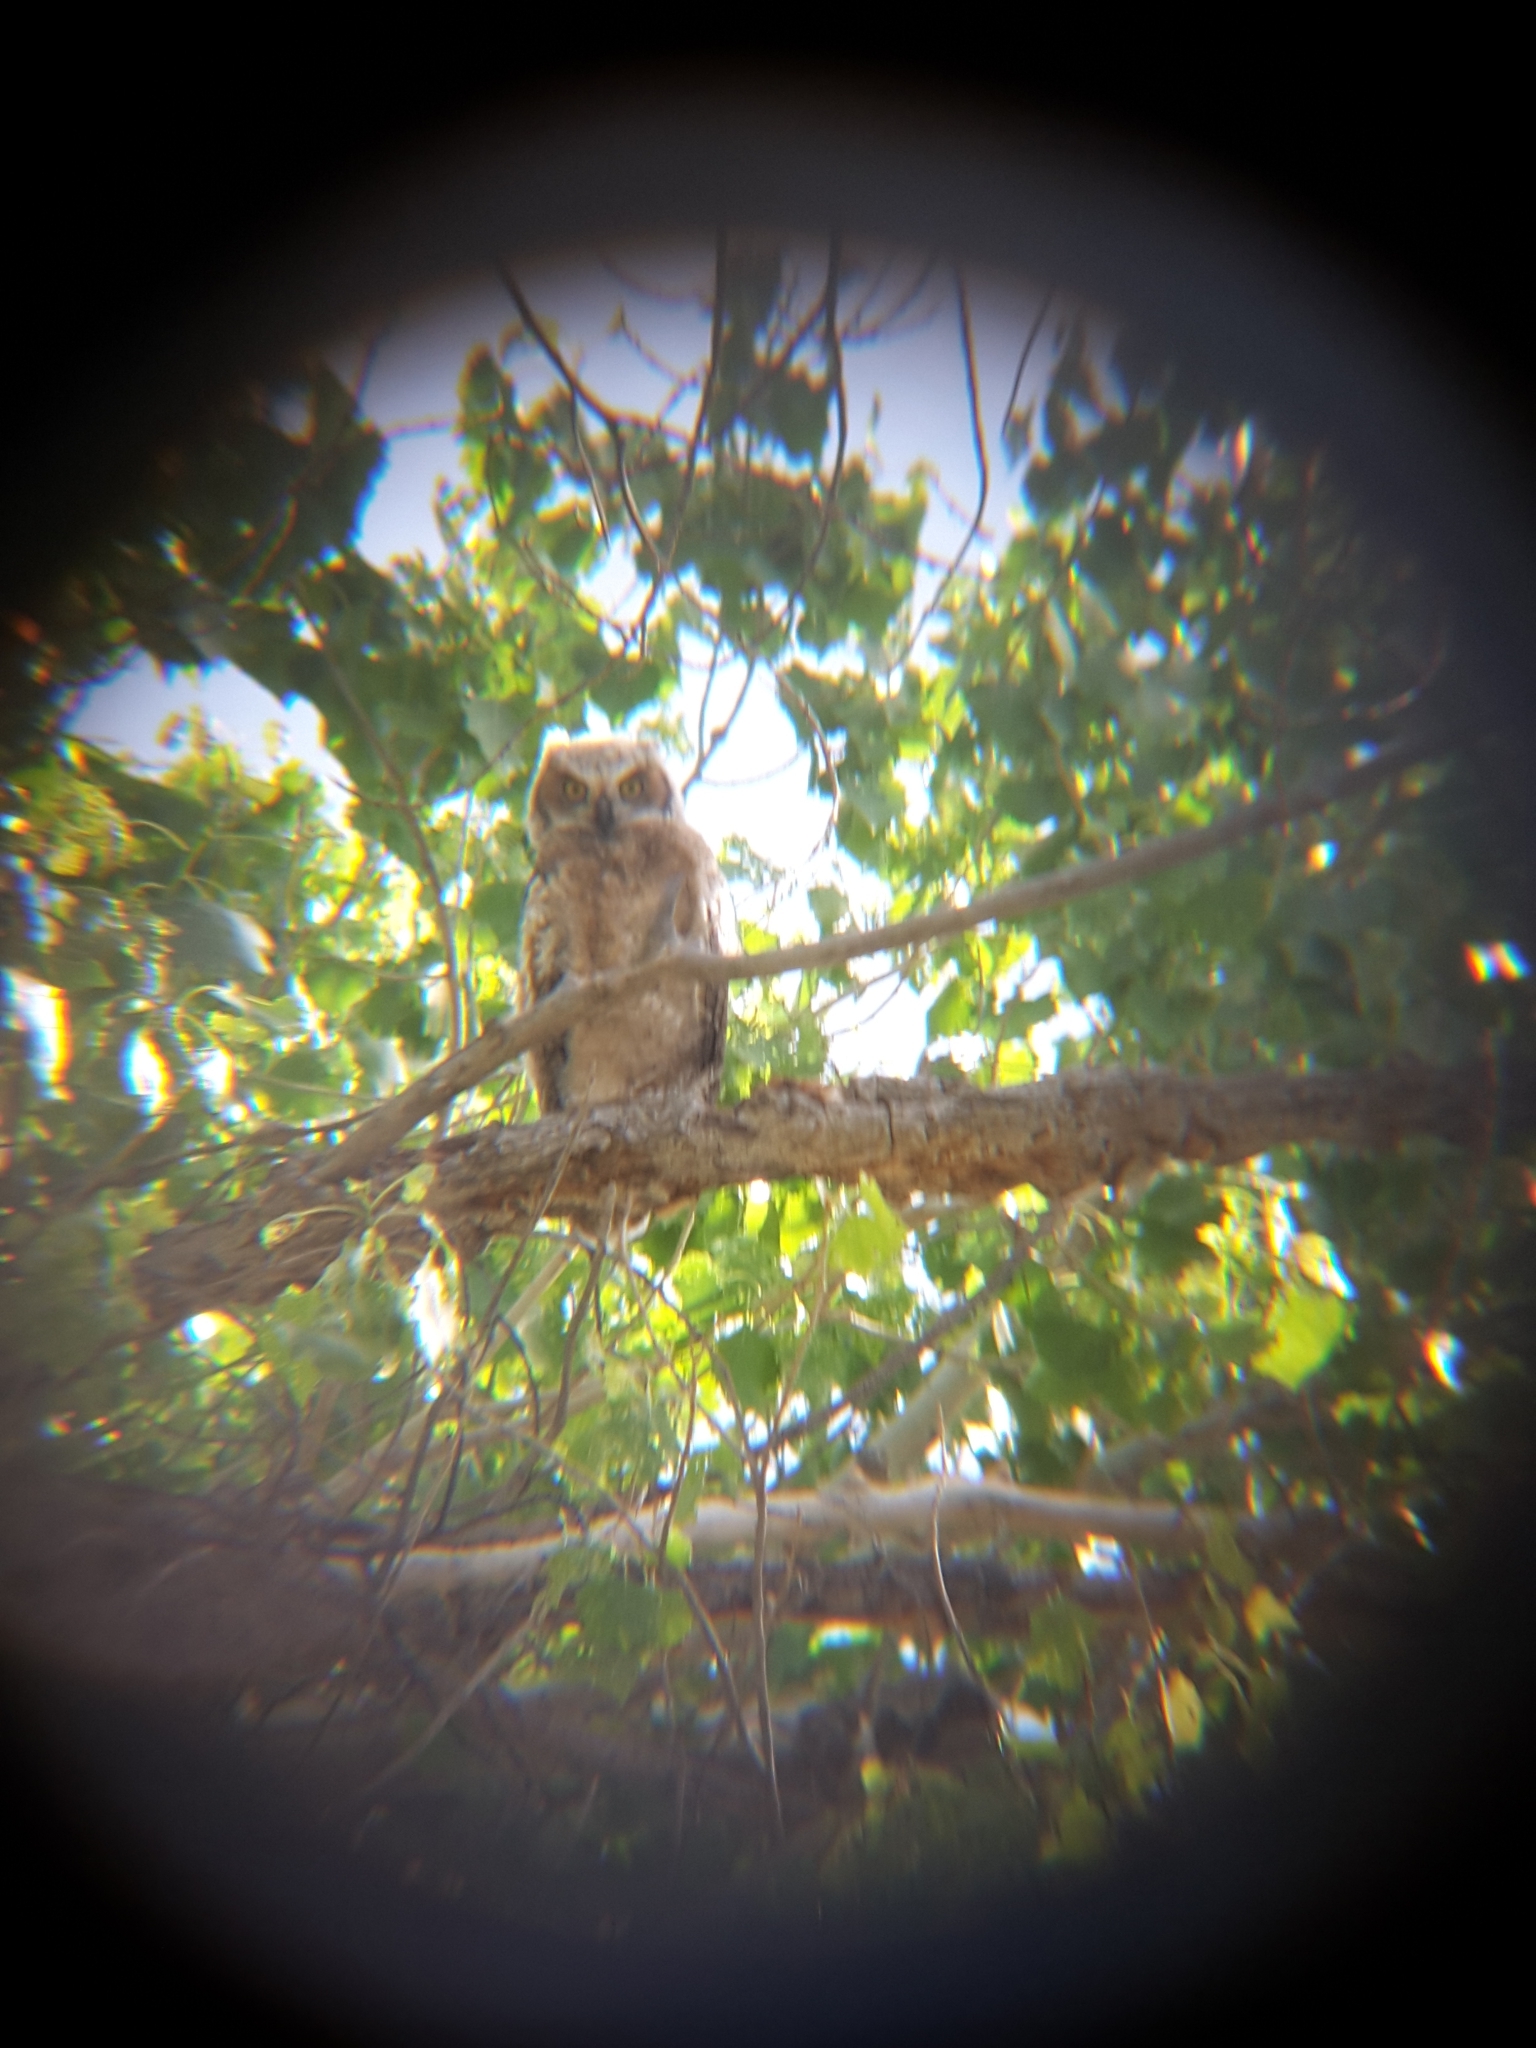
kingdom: Animalia
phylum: Chordata
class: Aves
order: Strigiformes
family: Strigidae
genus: Bubo
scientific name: Bubo virginianus
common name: Great horned owl
